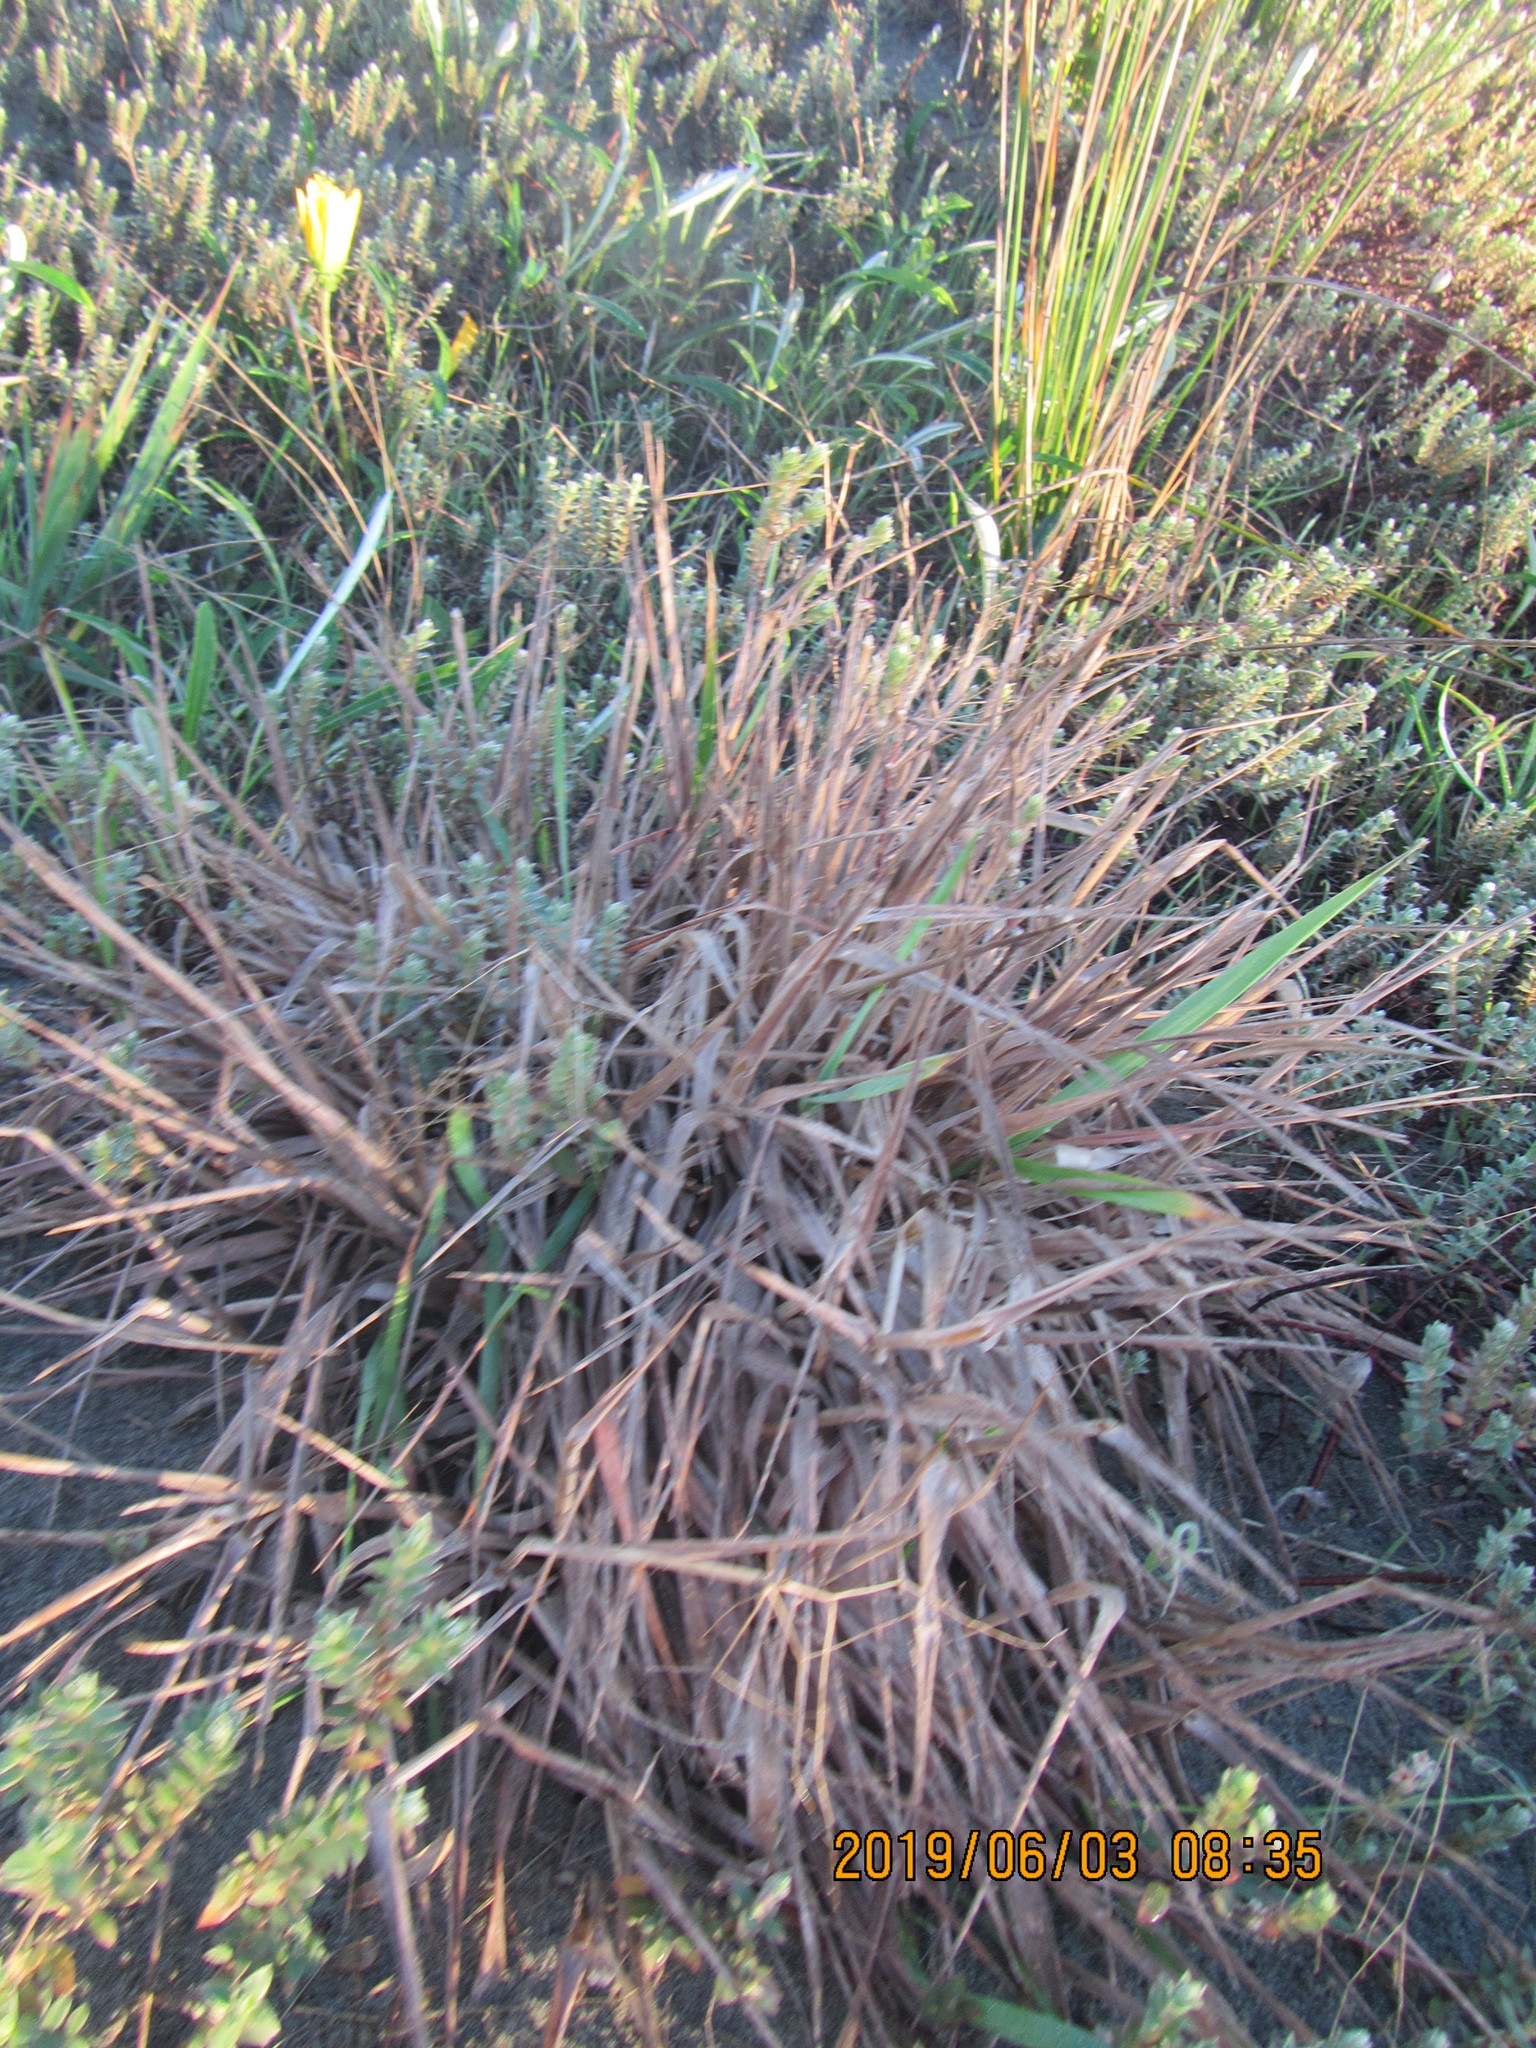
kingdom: Plantae
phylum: Tracheophyta
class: Liliopsida
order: Poales
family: Poaceae
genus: Lachnagrostis
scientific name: Lachnagrostis billardierei
